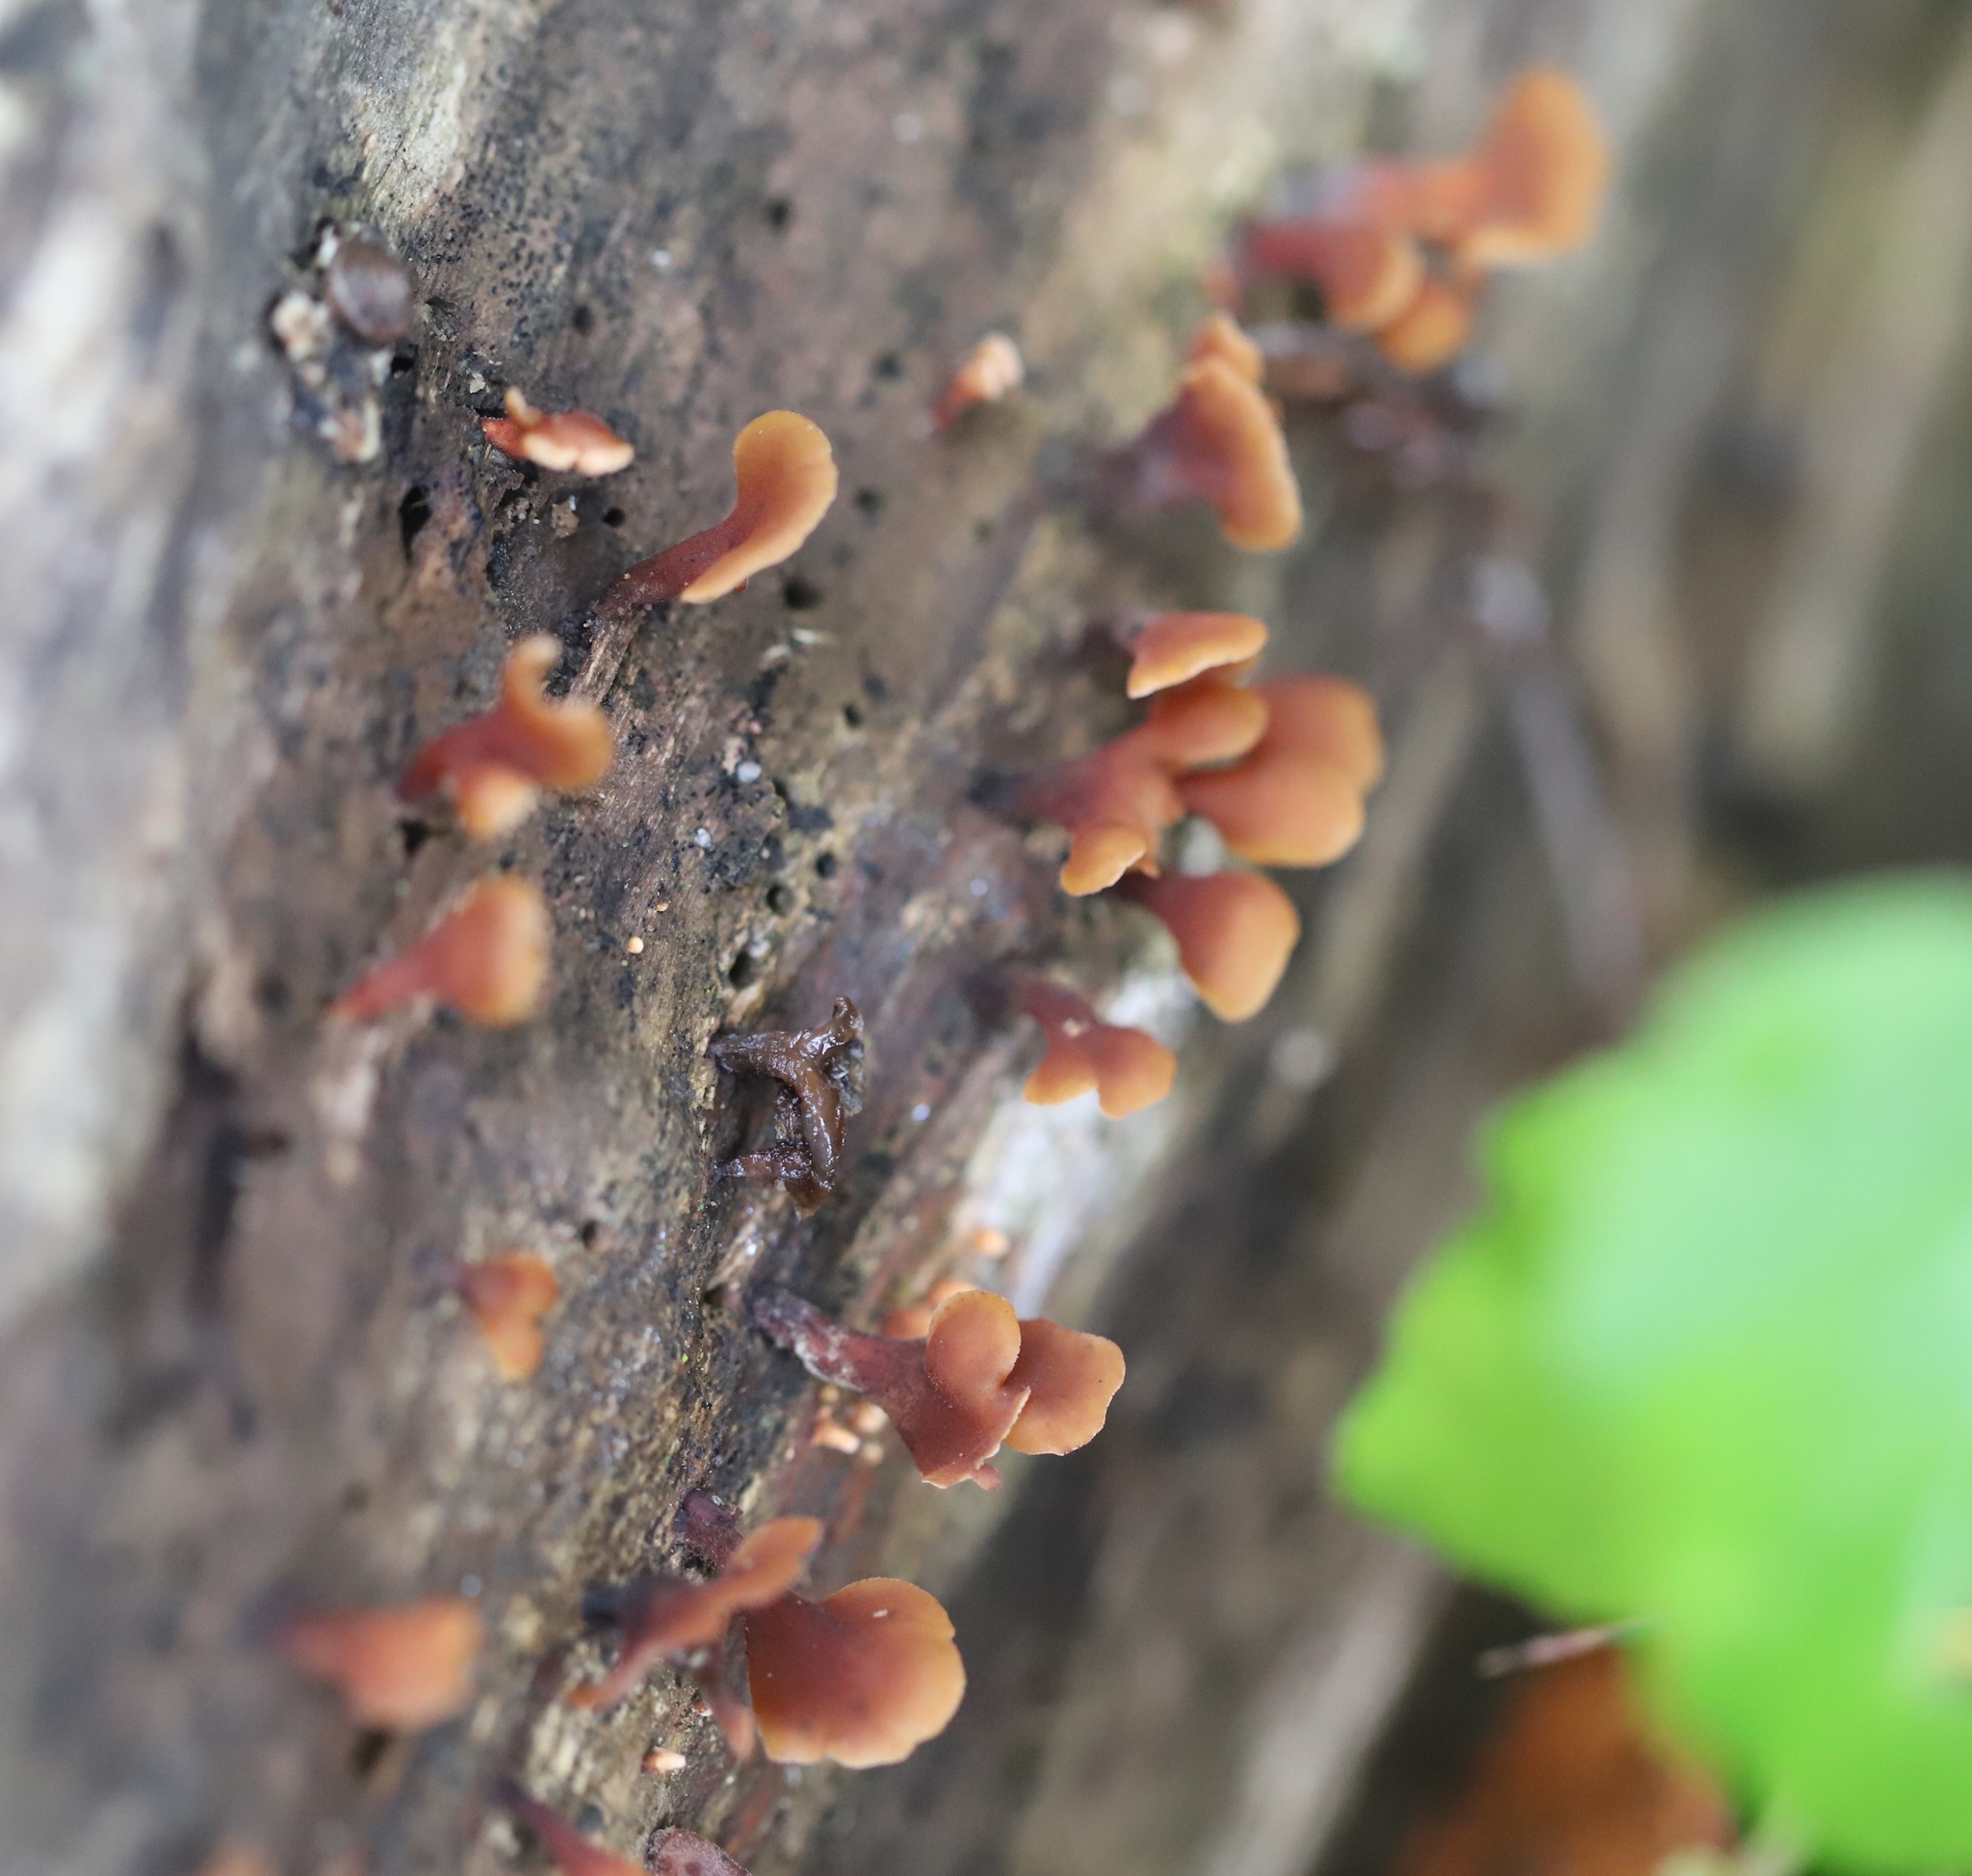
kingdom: Fungi
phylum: Basidiomycota
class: Dacrymycetes
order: Dacrymycetales
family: Dacrymycetaceae
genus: Dacryopinax
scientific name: Dacryopinax elegans
